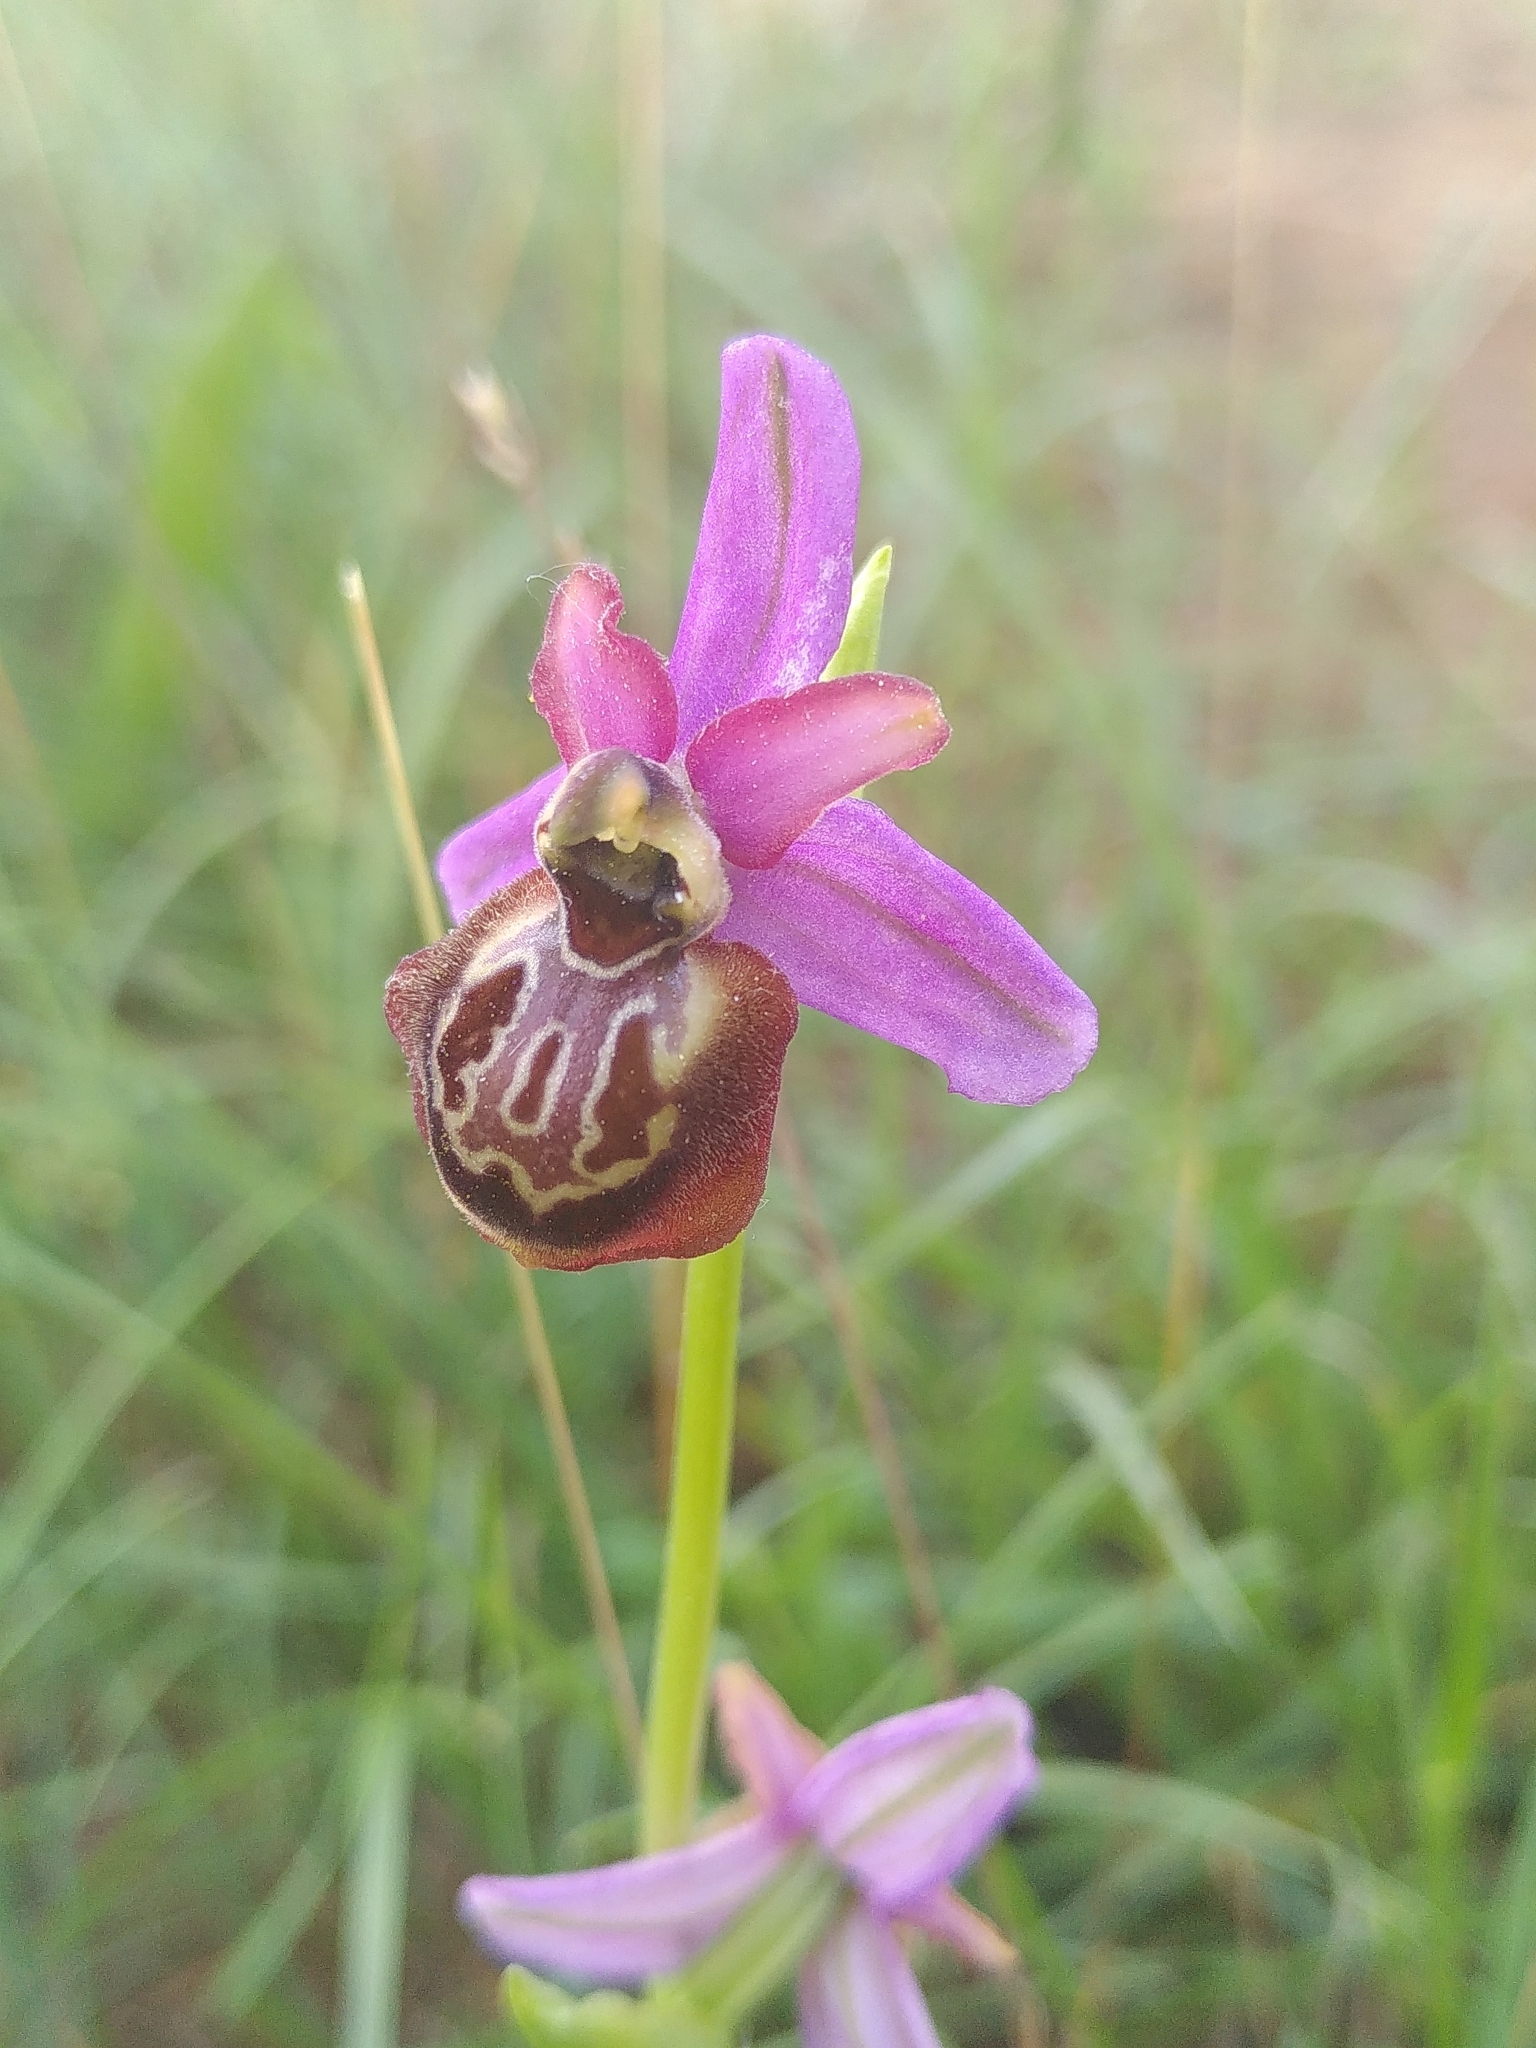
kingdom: Plantae
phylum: Tracheophyta
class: Liliopsida
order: Asparagales
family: Orchidaceae
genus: Ophrys
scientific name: Ophrys sphegodes
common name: Early spider-orchid
